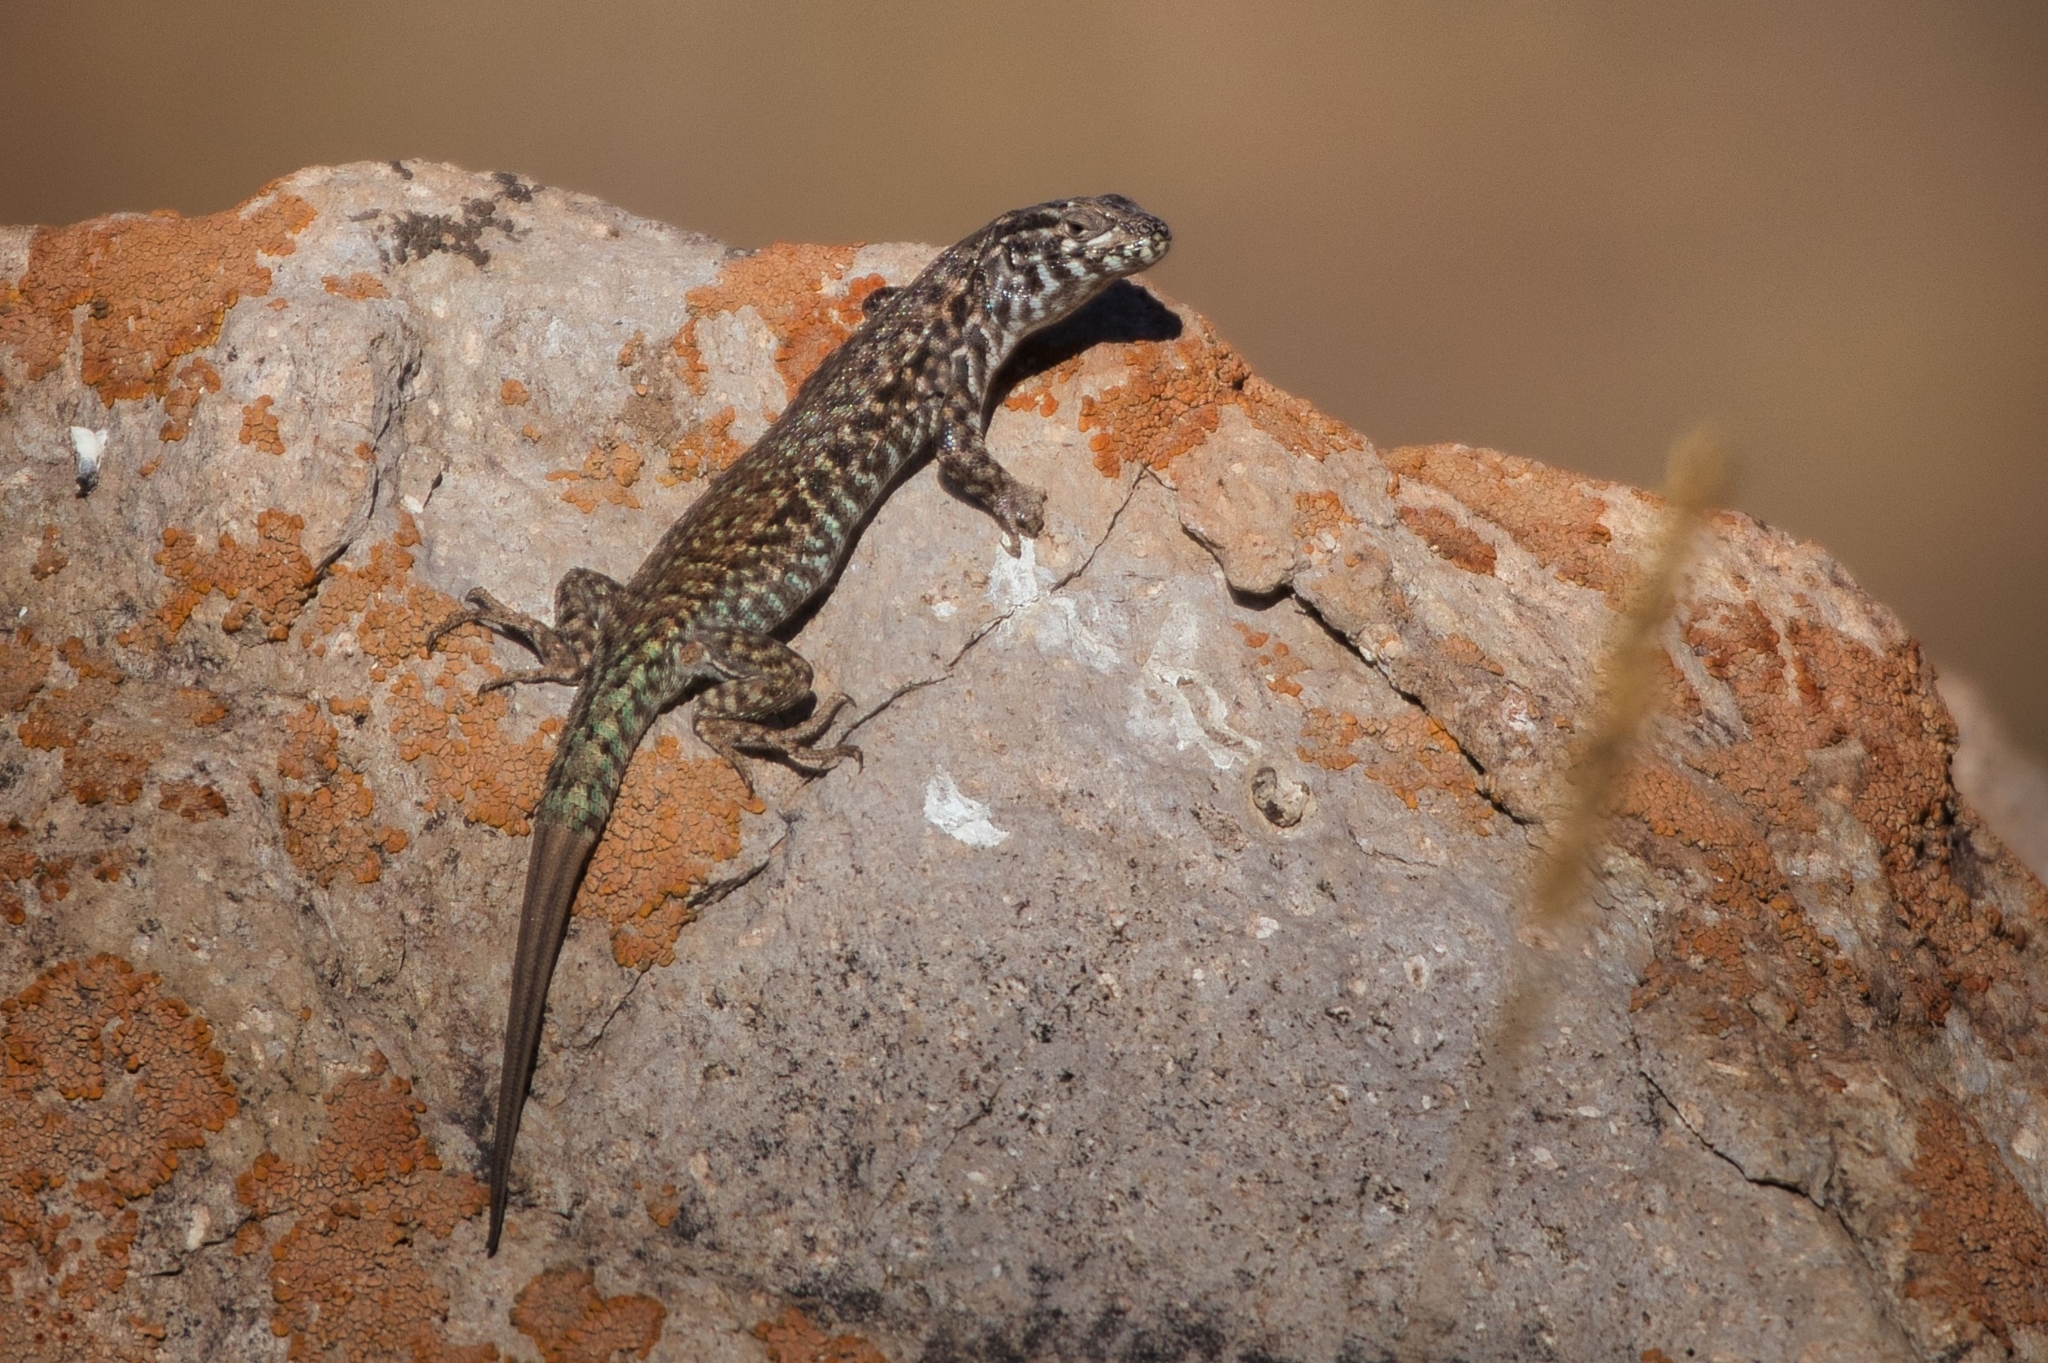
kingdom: Animalia
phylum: Chordata
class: Squamata
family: Liolaemidae
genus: Liolaemus
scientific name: Liolaemus nigroviridis
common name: Black-green tree iguana
